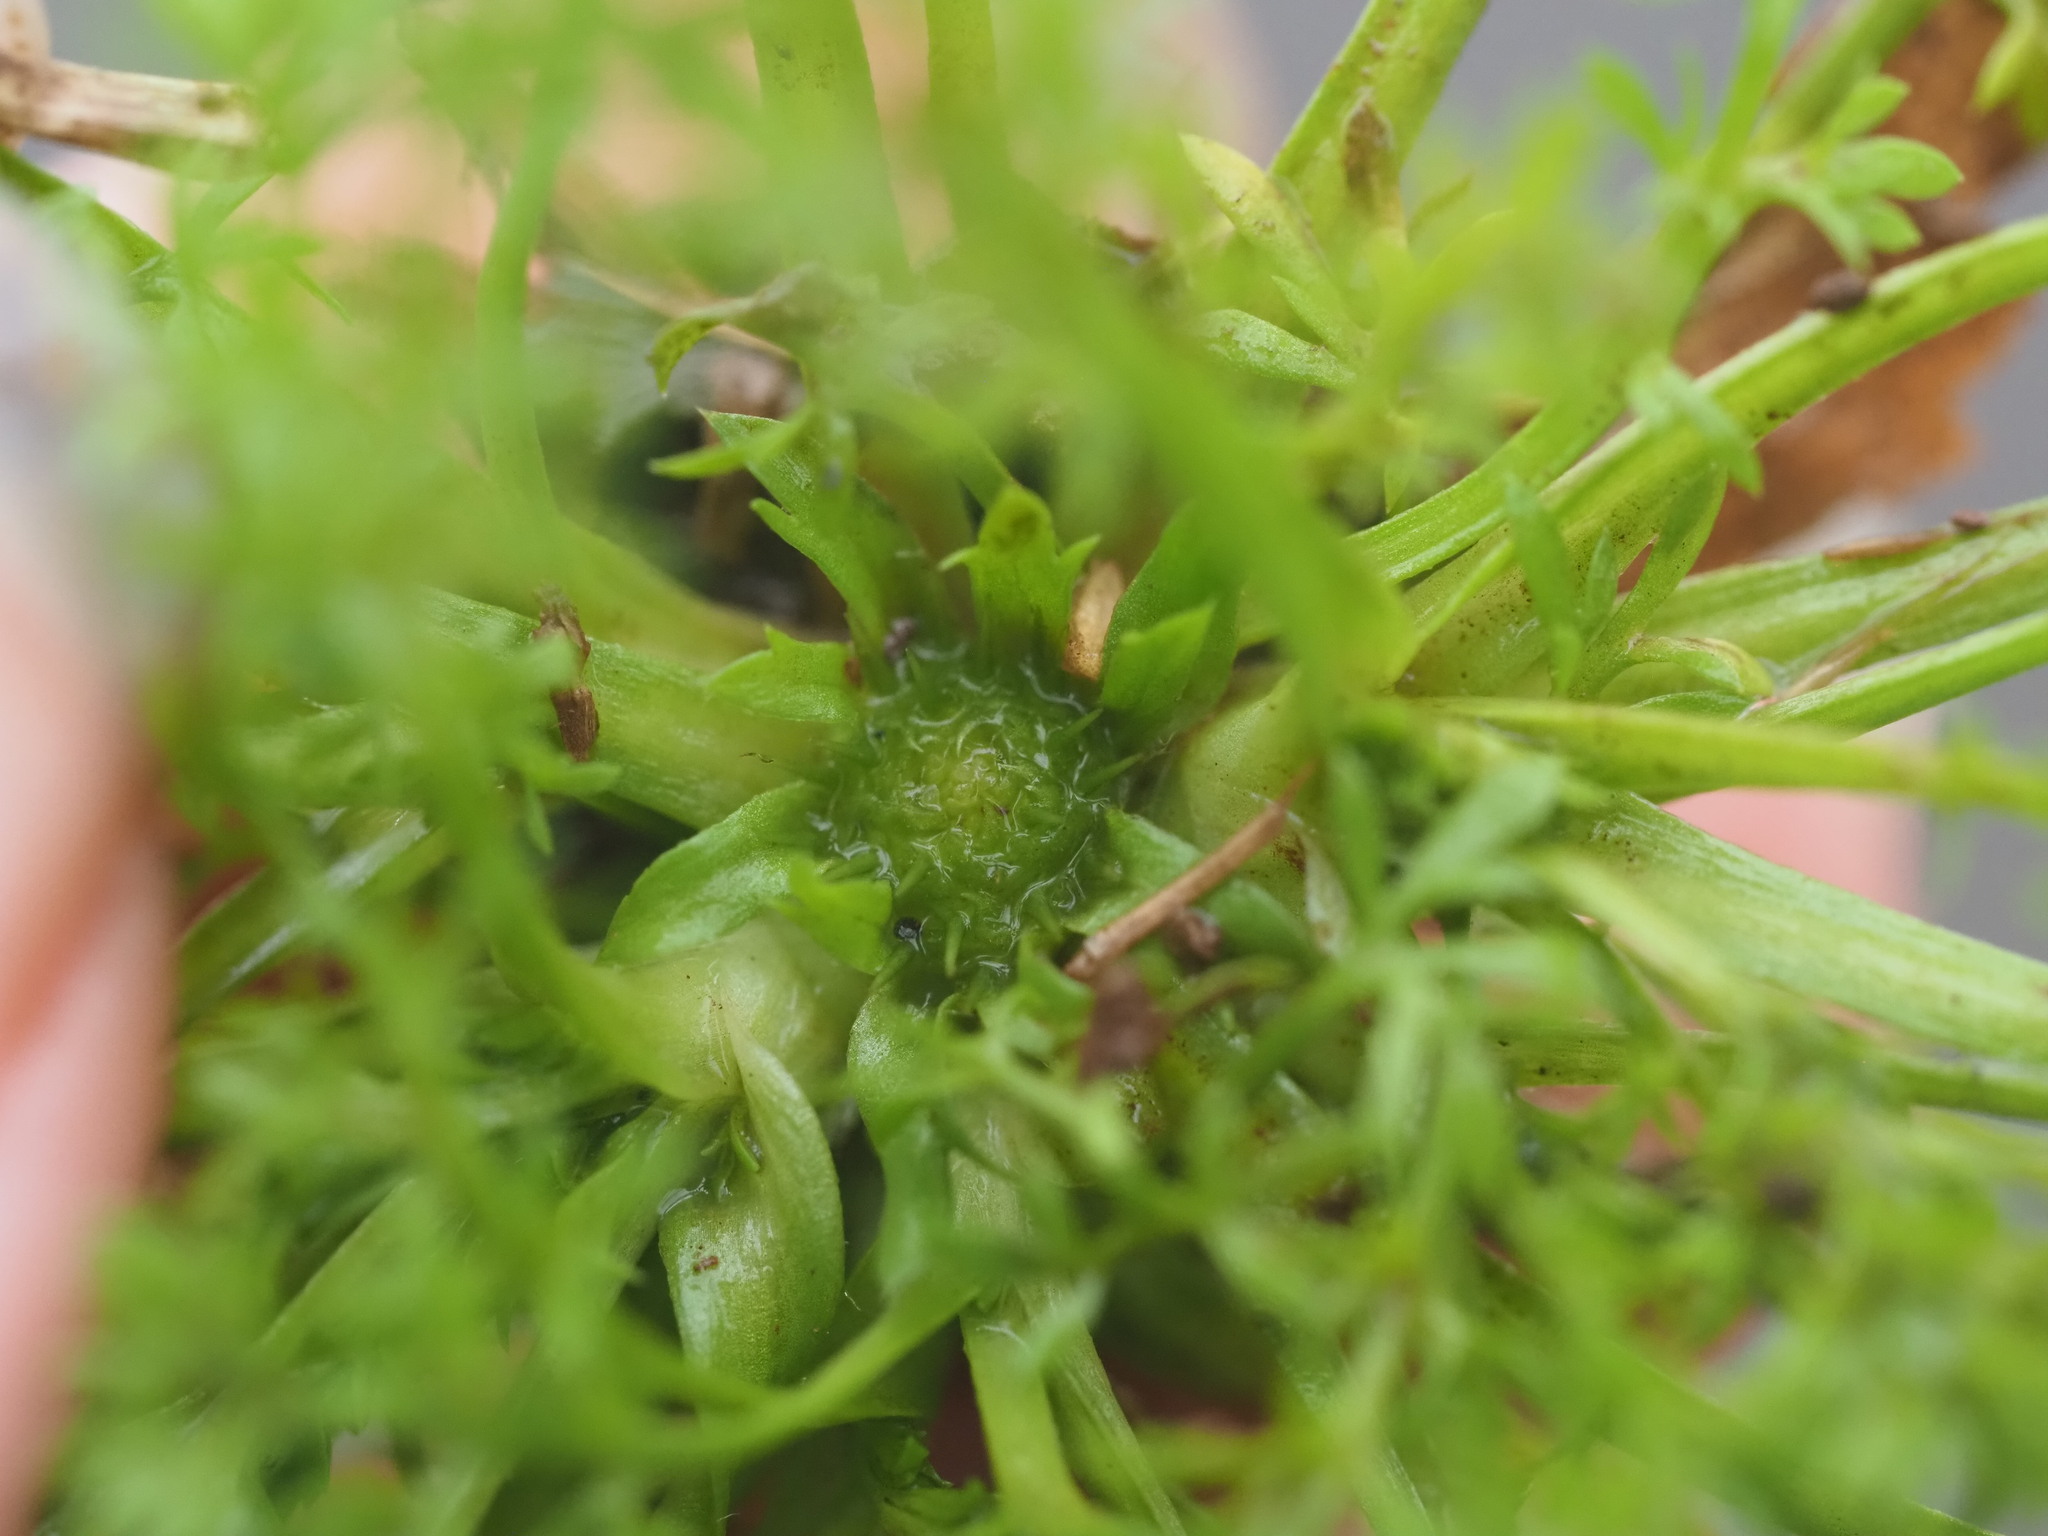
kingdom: Plantae
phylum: Tracheophyta
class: Magnoliopsida
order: Asterales
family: Asteraceae
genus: Soliva
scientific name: Soliva sessilis
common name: Field burrweed
